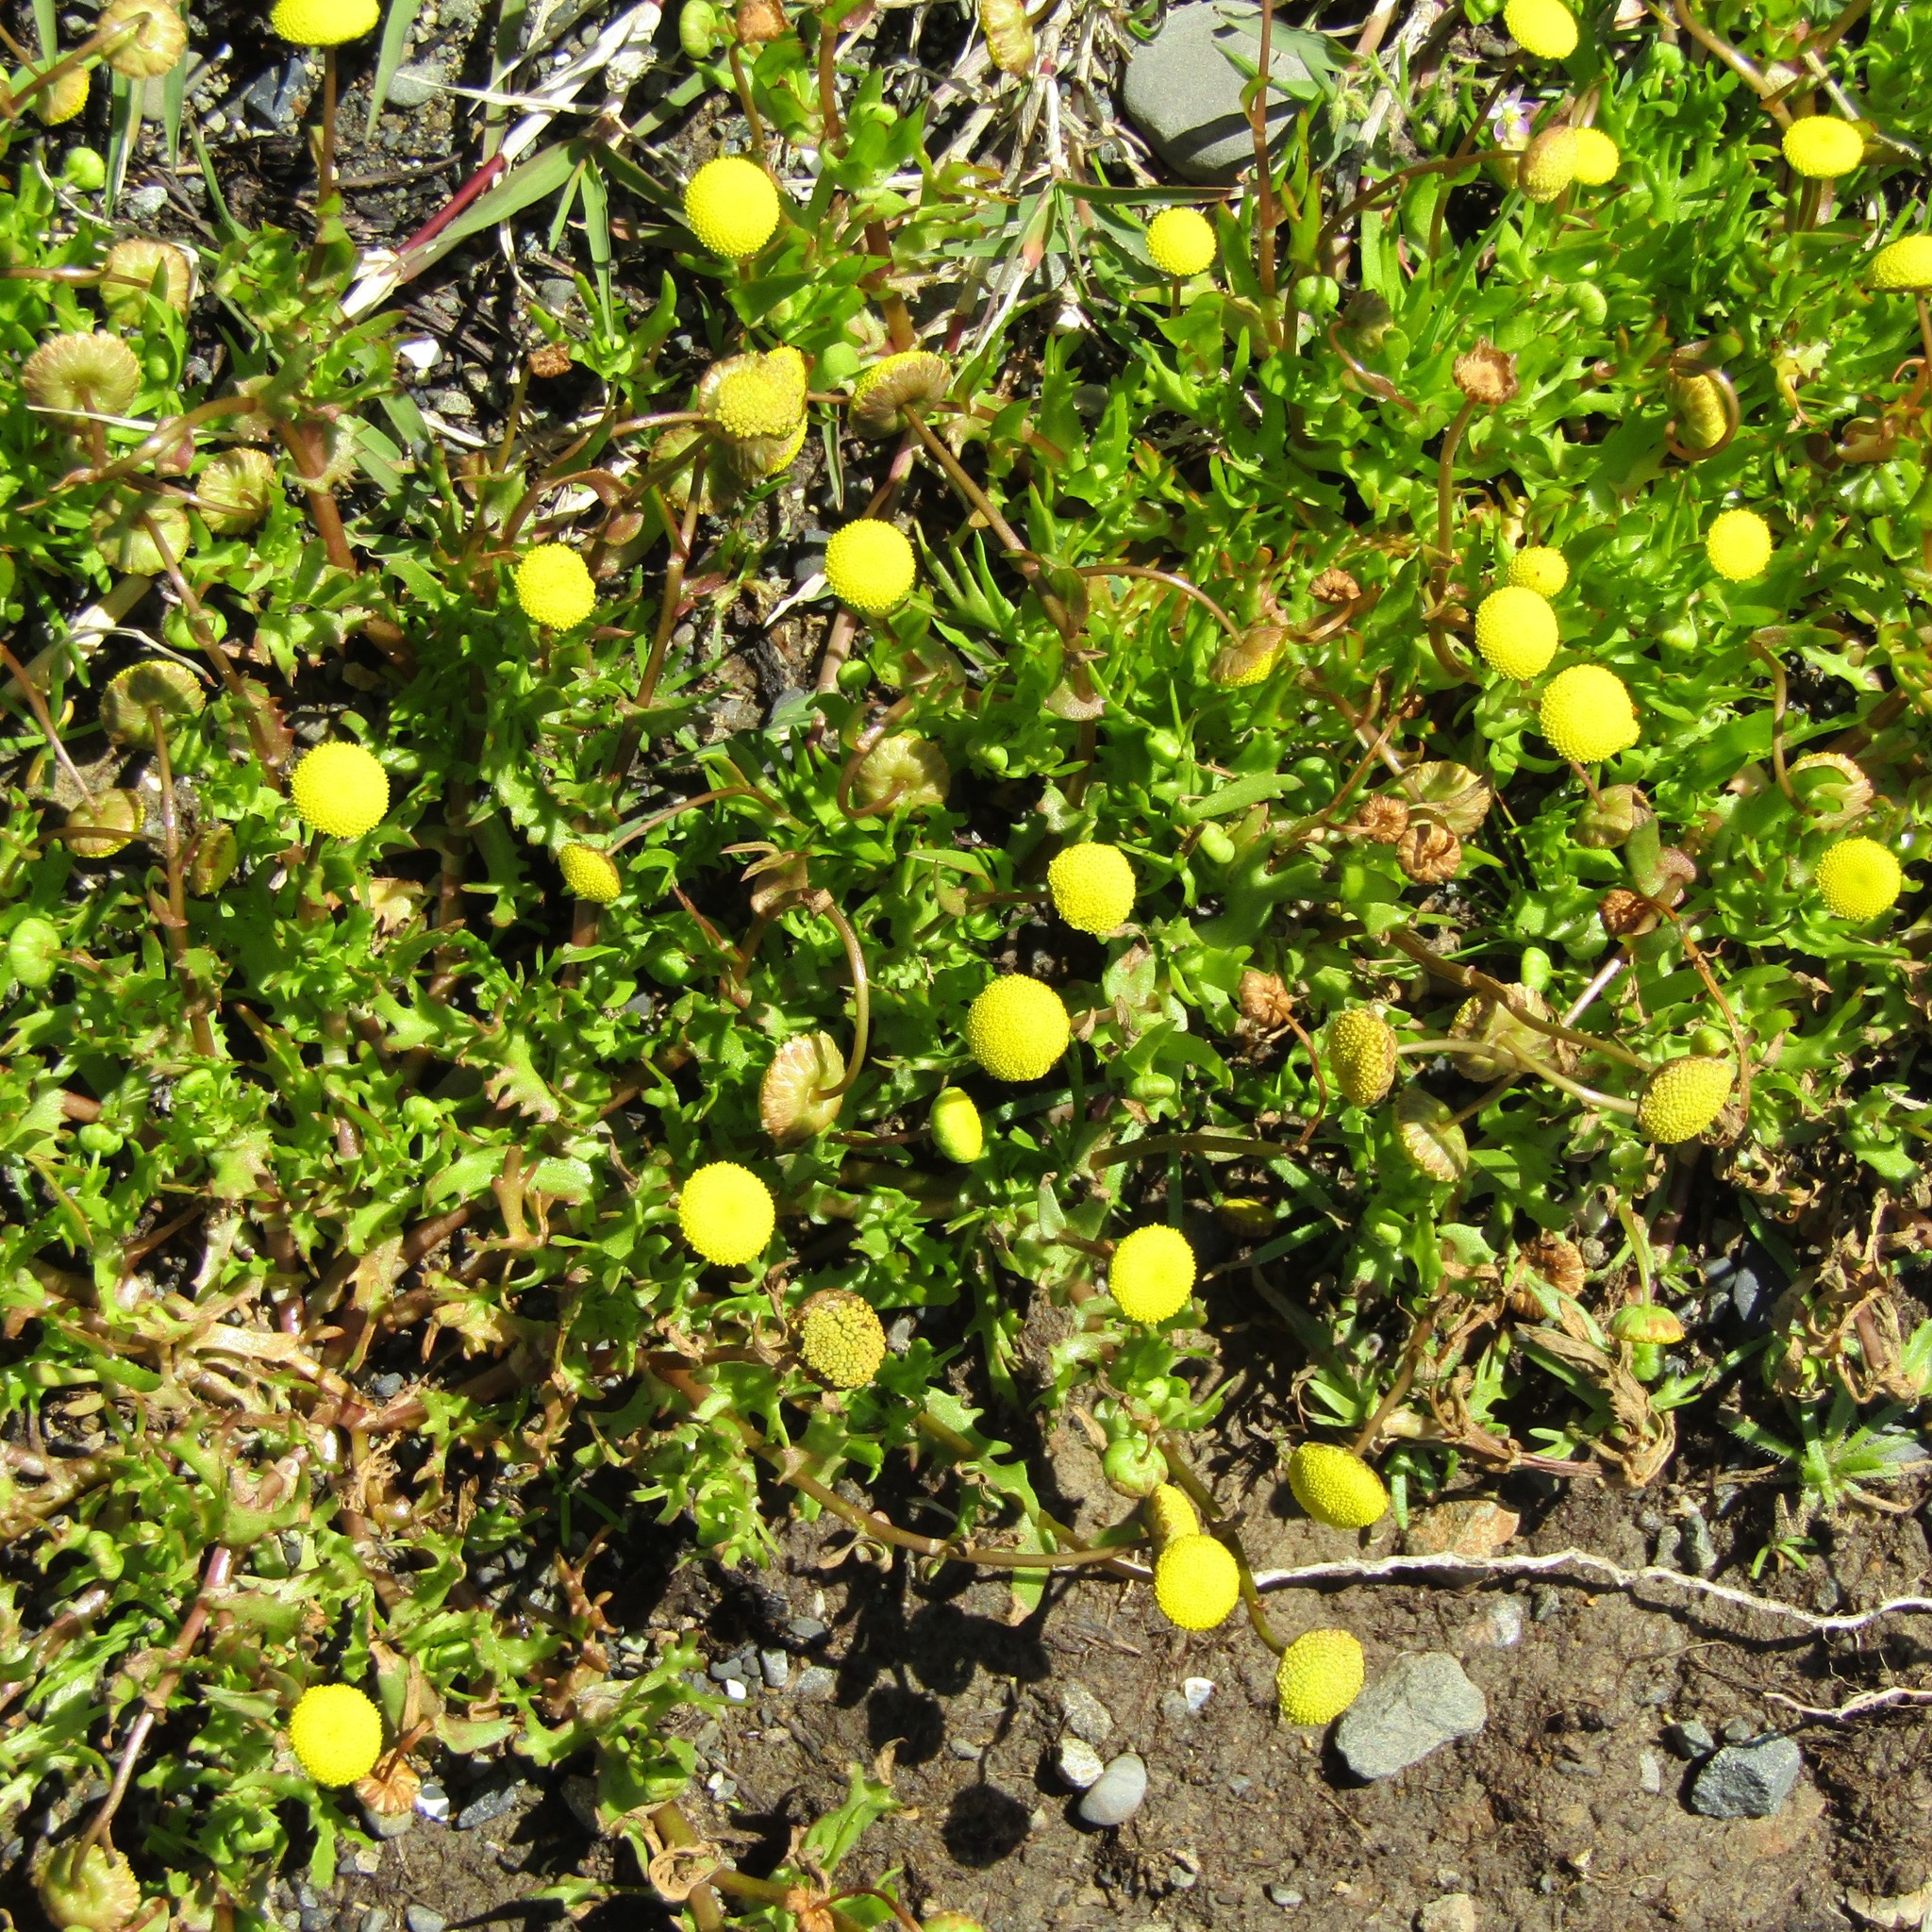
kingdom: Plantae
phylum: Tracheophyta
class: Magnoliopsida
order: Asterales
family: Asteraceae
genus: Cotula
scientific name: Cotula coronopifolia
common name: Buttonweed
